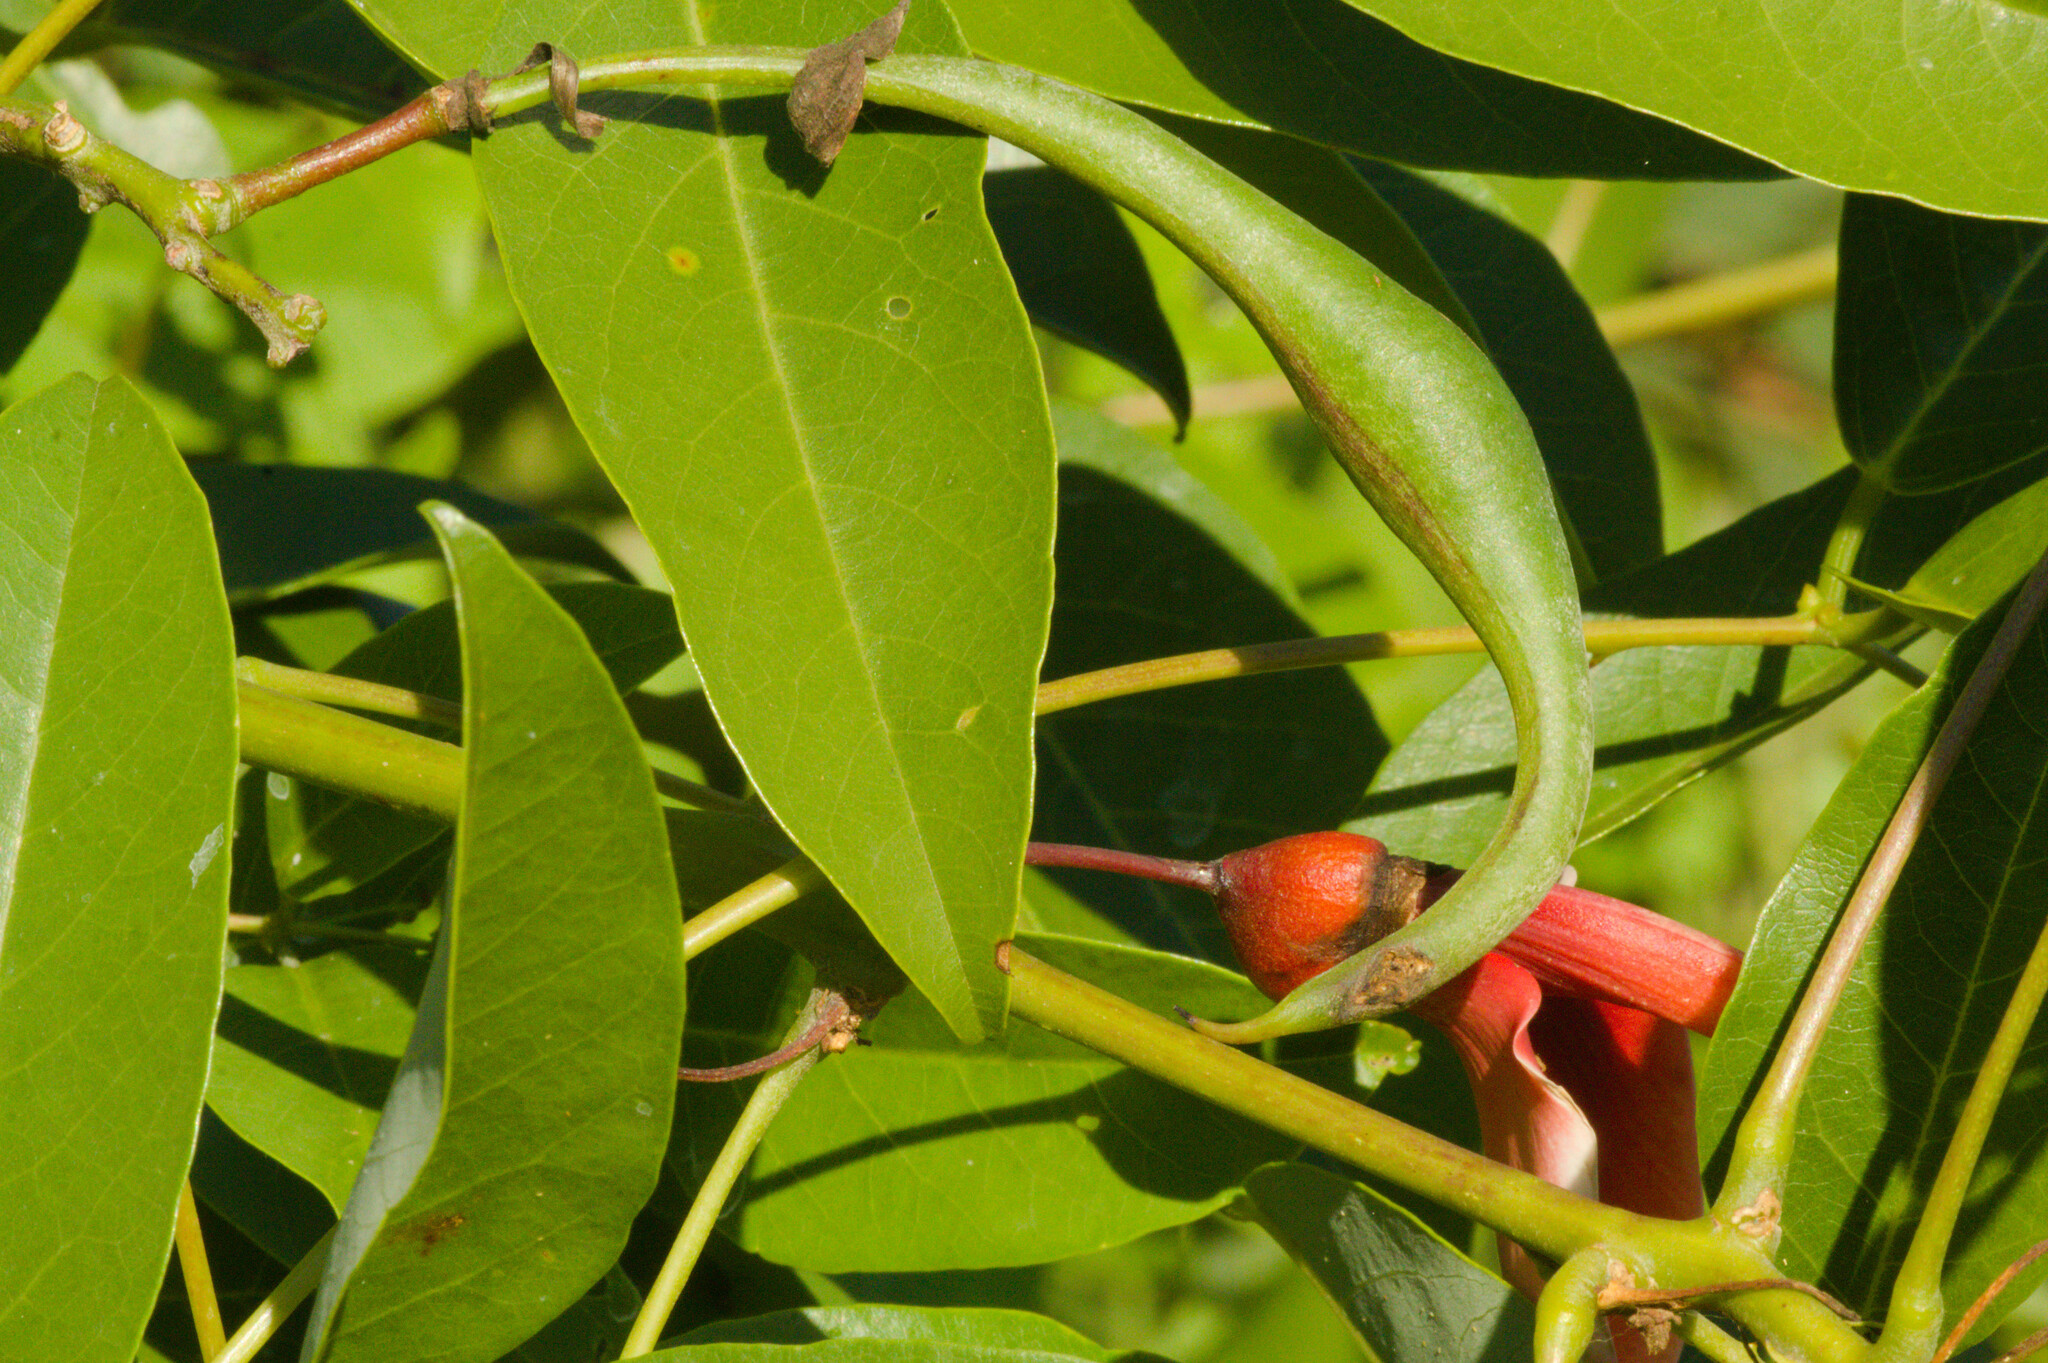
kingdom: Plantae
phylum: Tracheophyta
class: Magnoliopsida
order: Fabales
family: Fabaceae
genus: Erythrina
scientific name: Erythrina crista-galli
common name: Cockspur coral tree
